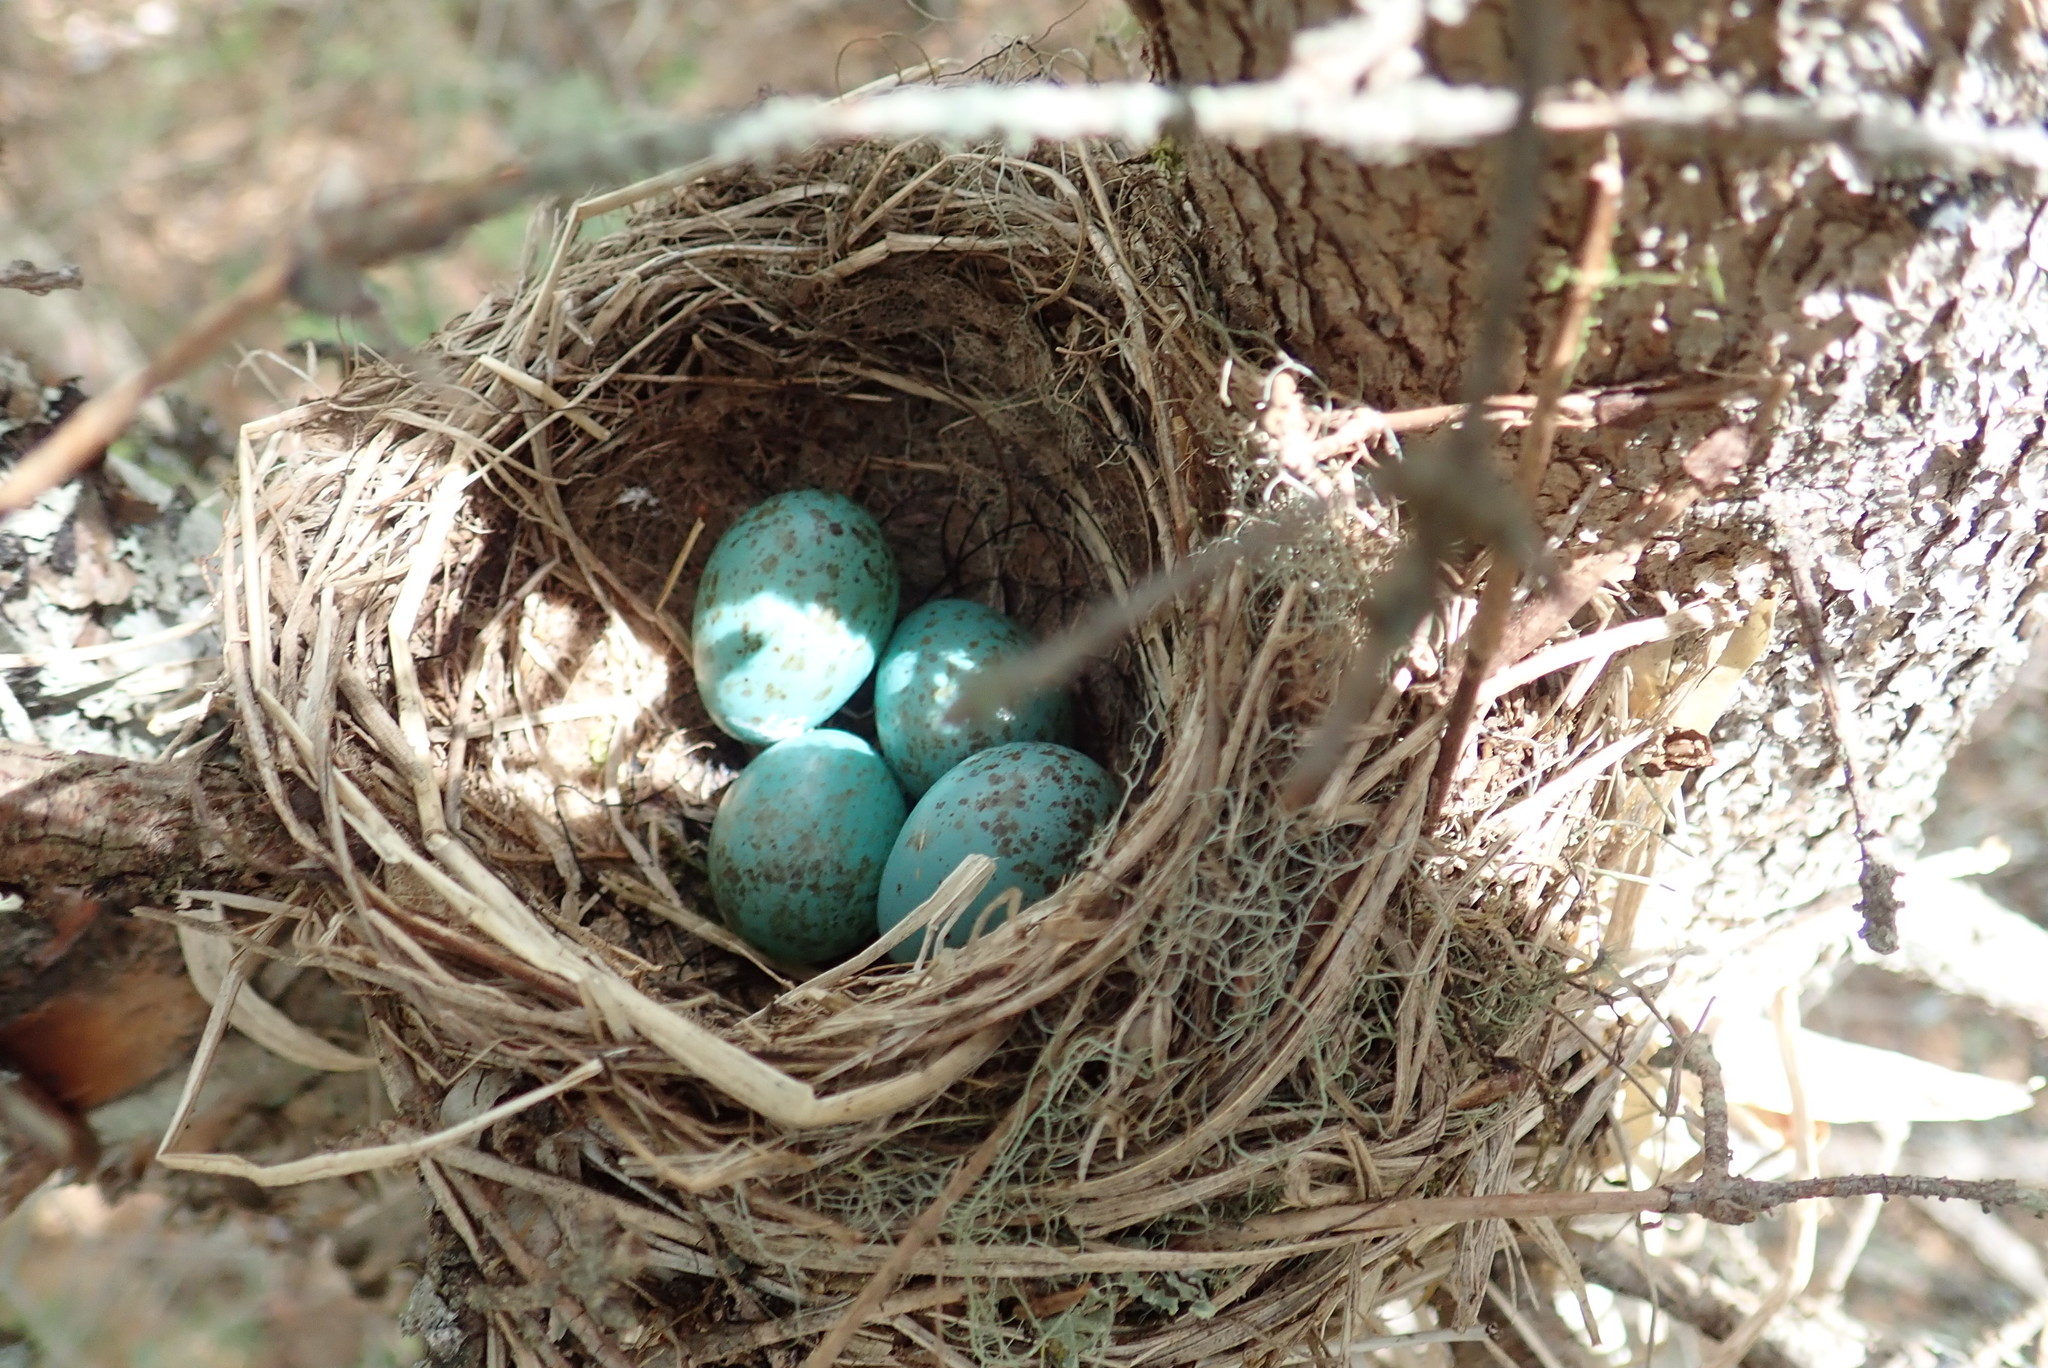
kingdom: Animalia
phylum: Chordata
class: Aves
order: Passeriformes
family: Turdidae
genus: Catharus
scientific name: Catharus ustulatus
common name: Swainson's thrush
